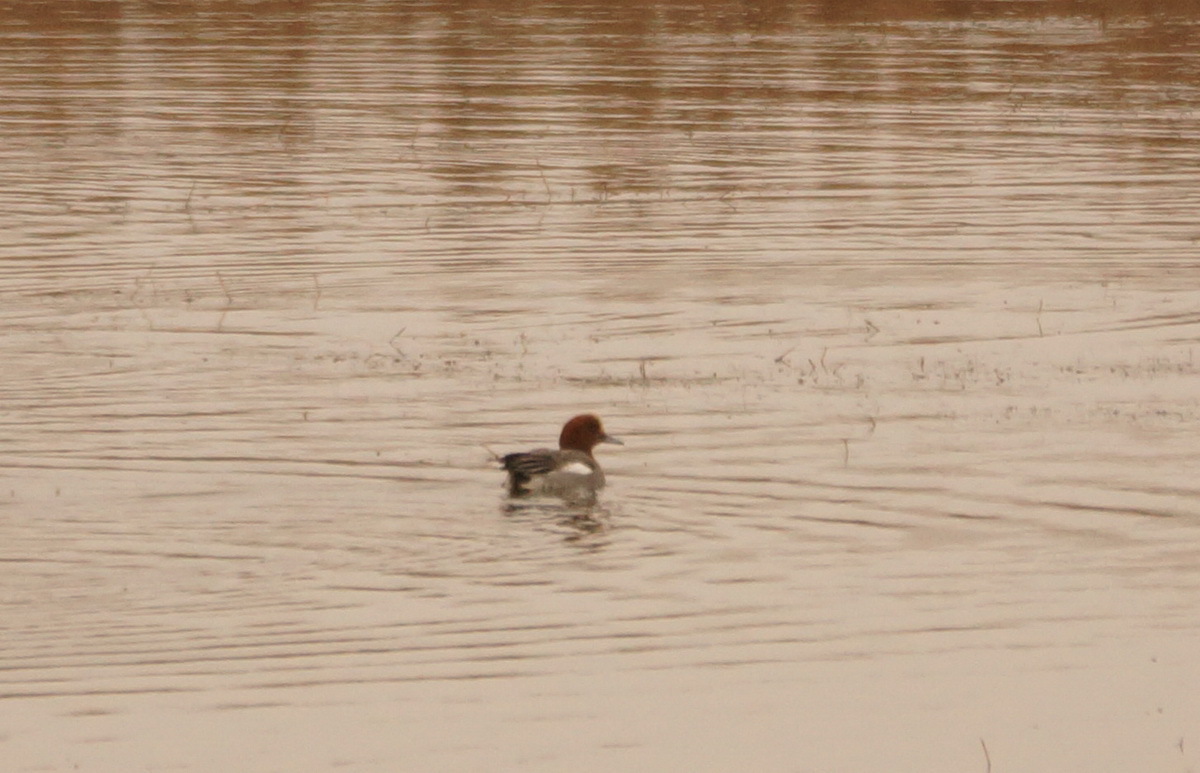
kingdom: Animalia
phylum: Chordata
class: Aves
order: Anseriformes
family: Anatidae
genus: Mareca
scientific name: Mareca penelope
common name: Eurasian wigeon
